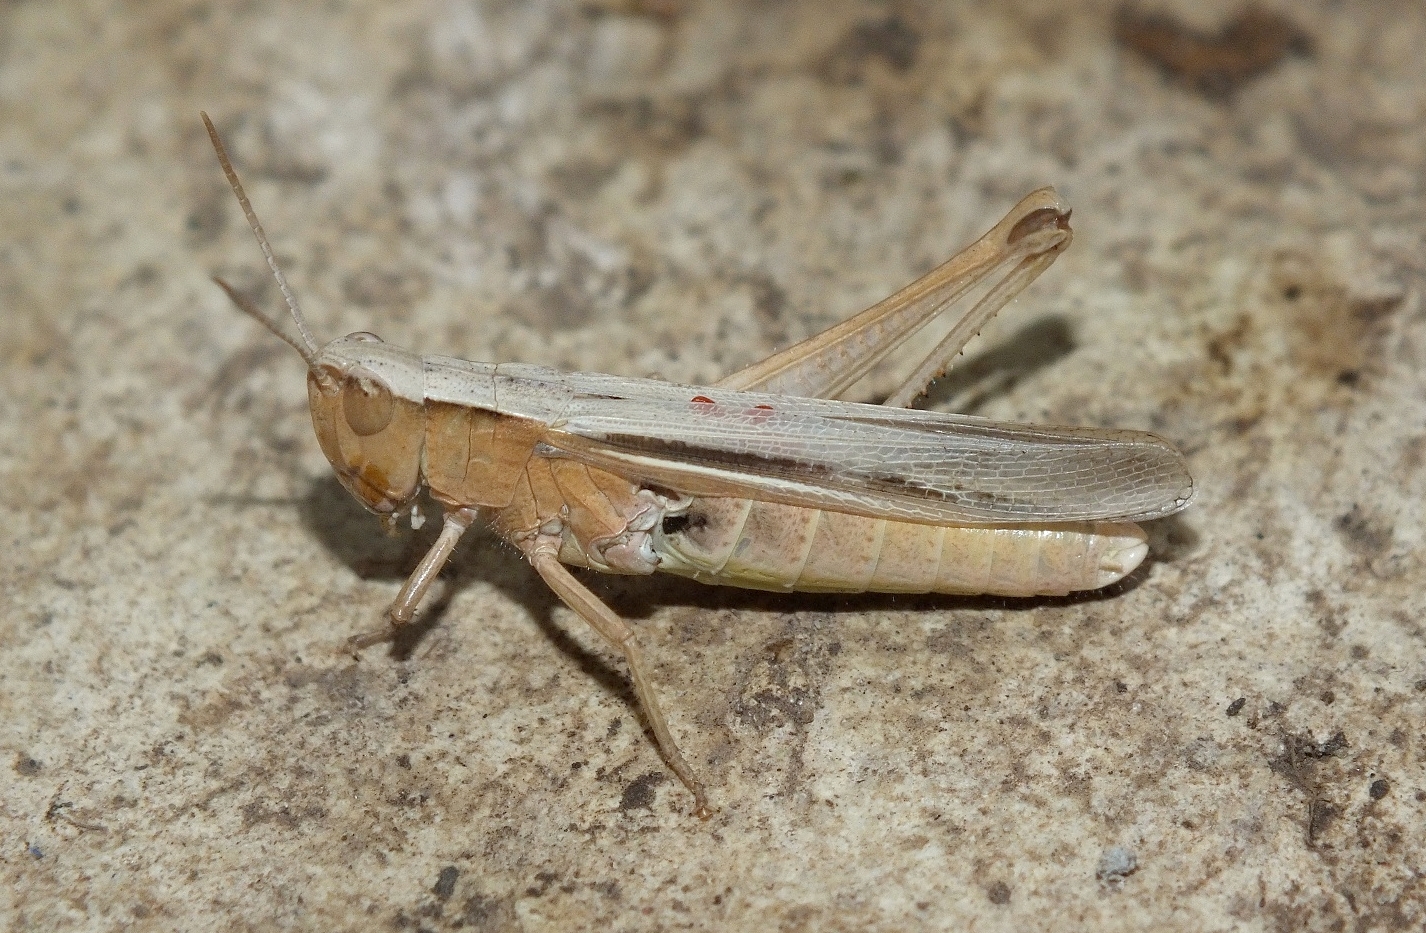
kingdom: Animalia
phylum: Arthropoda
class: Insecta
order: Orthoptera
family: Acrididae
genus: Chorthippus
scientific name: Chorthippus karelini
